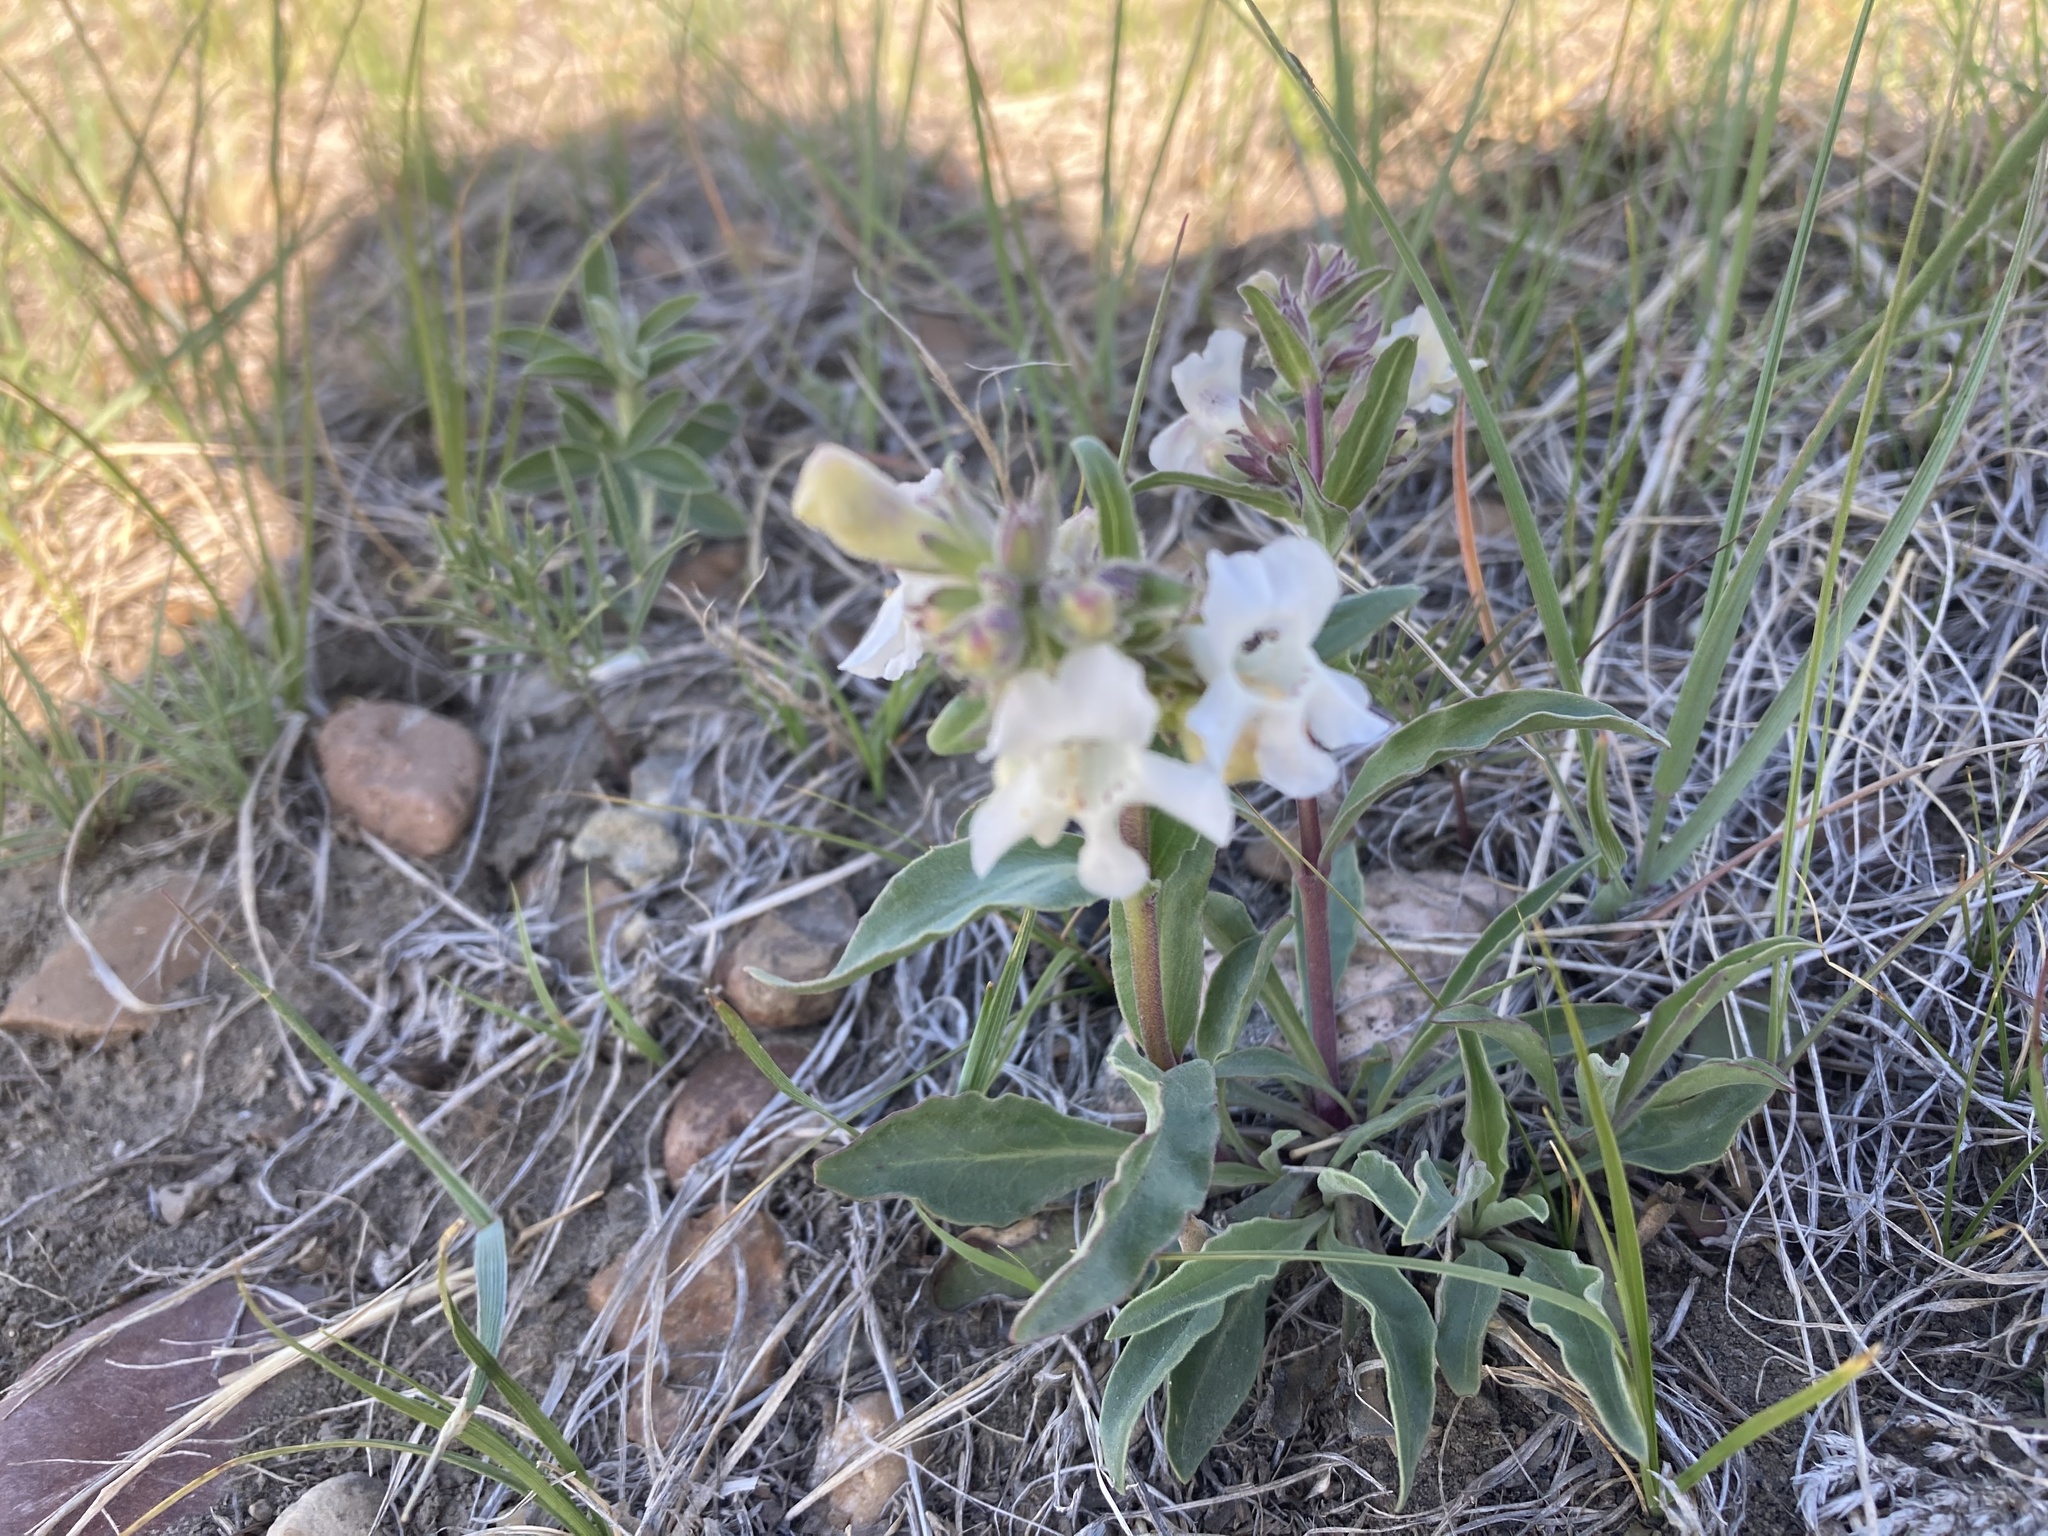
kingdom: Plantae
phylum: Tracheophyta
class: Magnoliopsida
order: Lamiales
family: Plantaginaceae
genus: Penstemon
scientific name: Penstemon albidus
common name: White beardtongue
